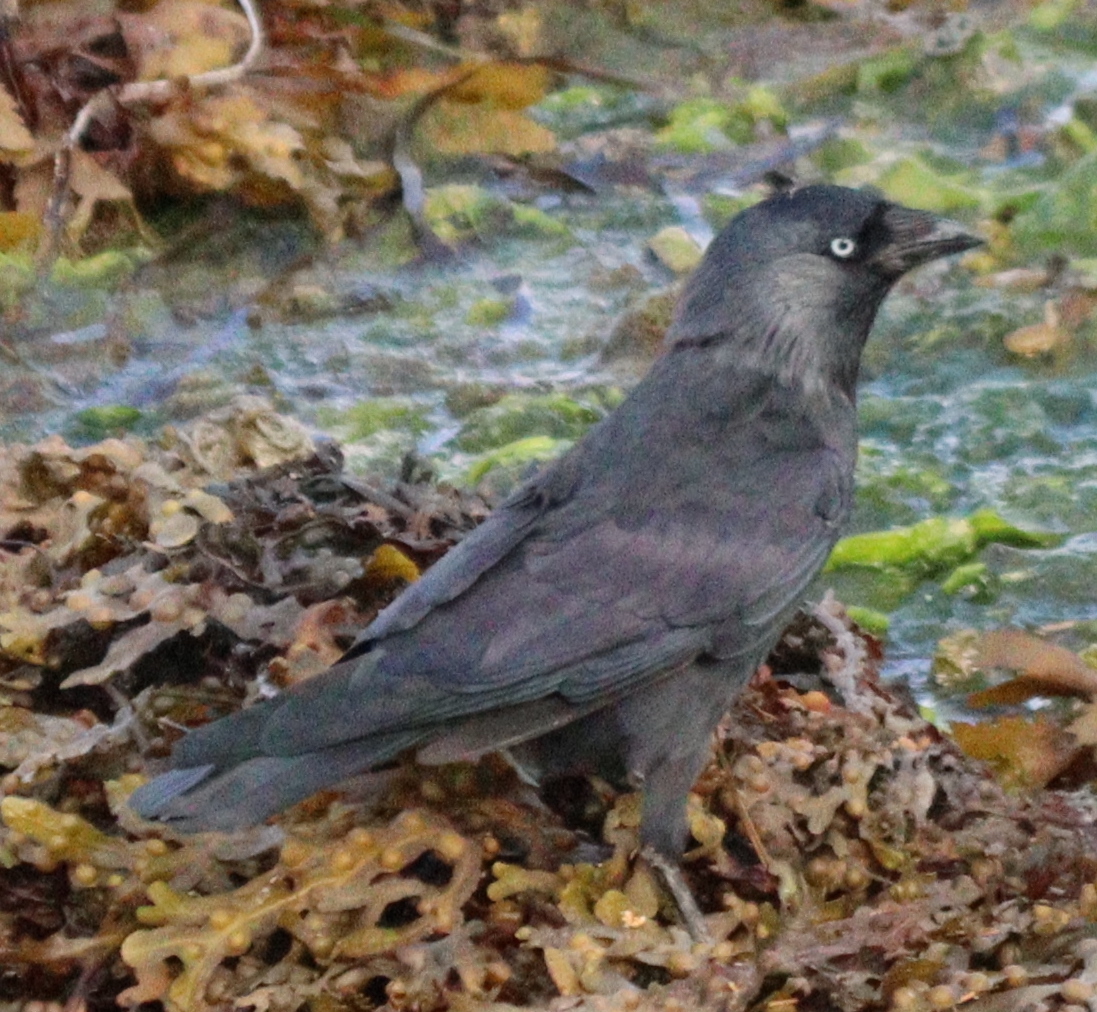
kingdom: Animalia
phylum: Chordata
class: Aves
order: Passeriformes
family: Corvidae
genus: Coloeus
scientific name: Coloeus monedula
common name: Western jackdaw
